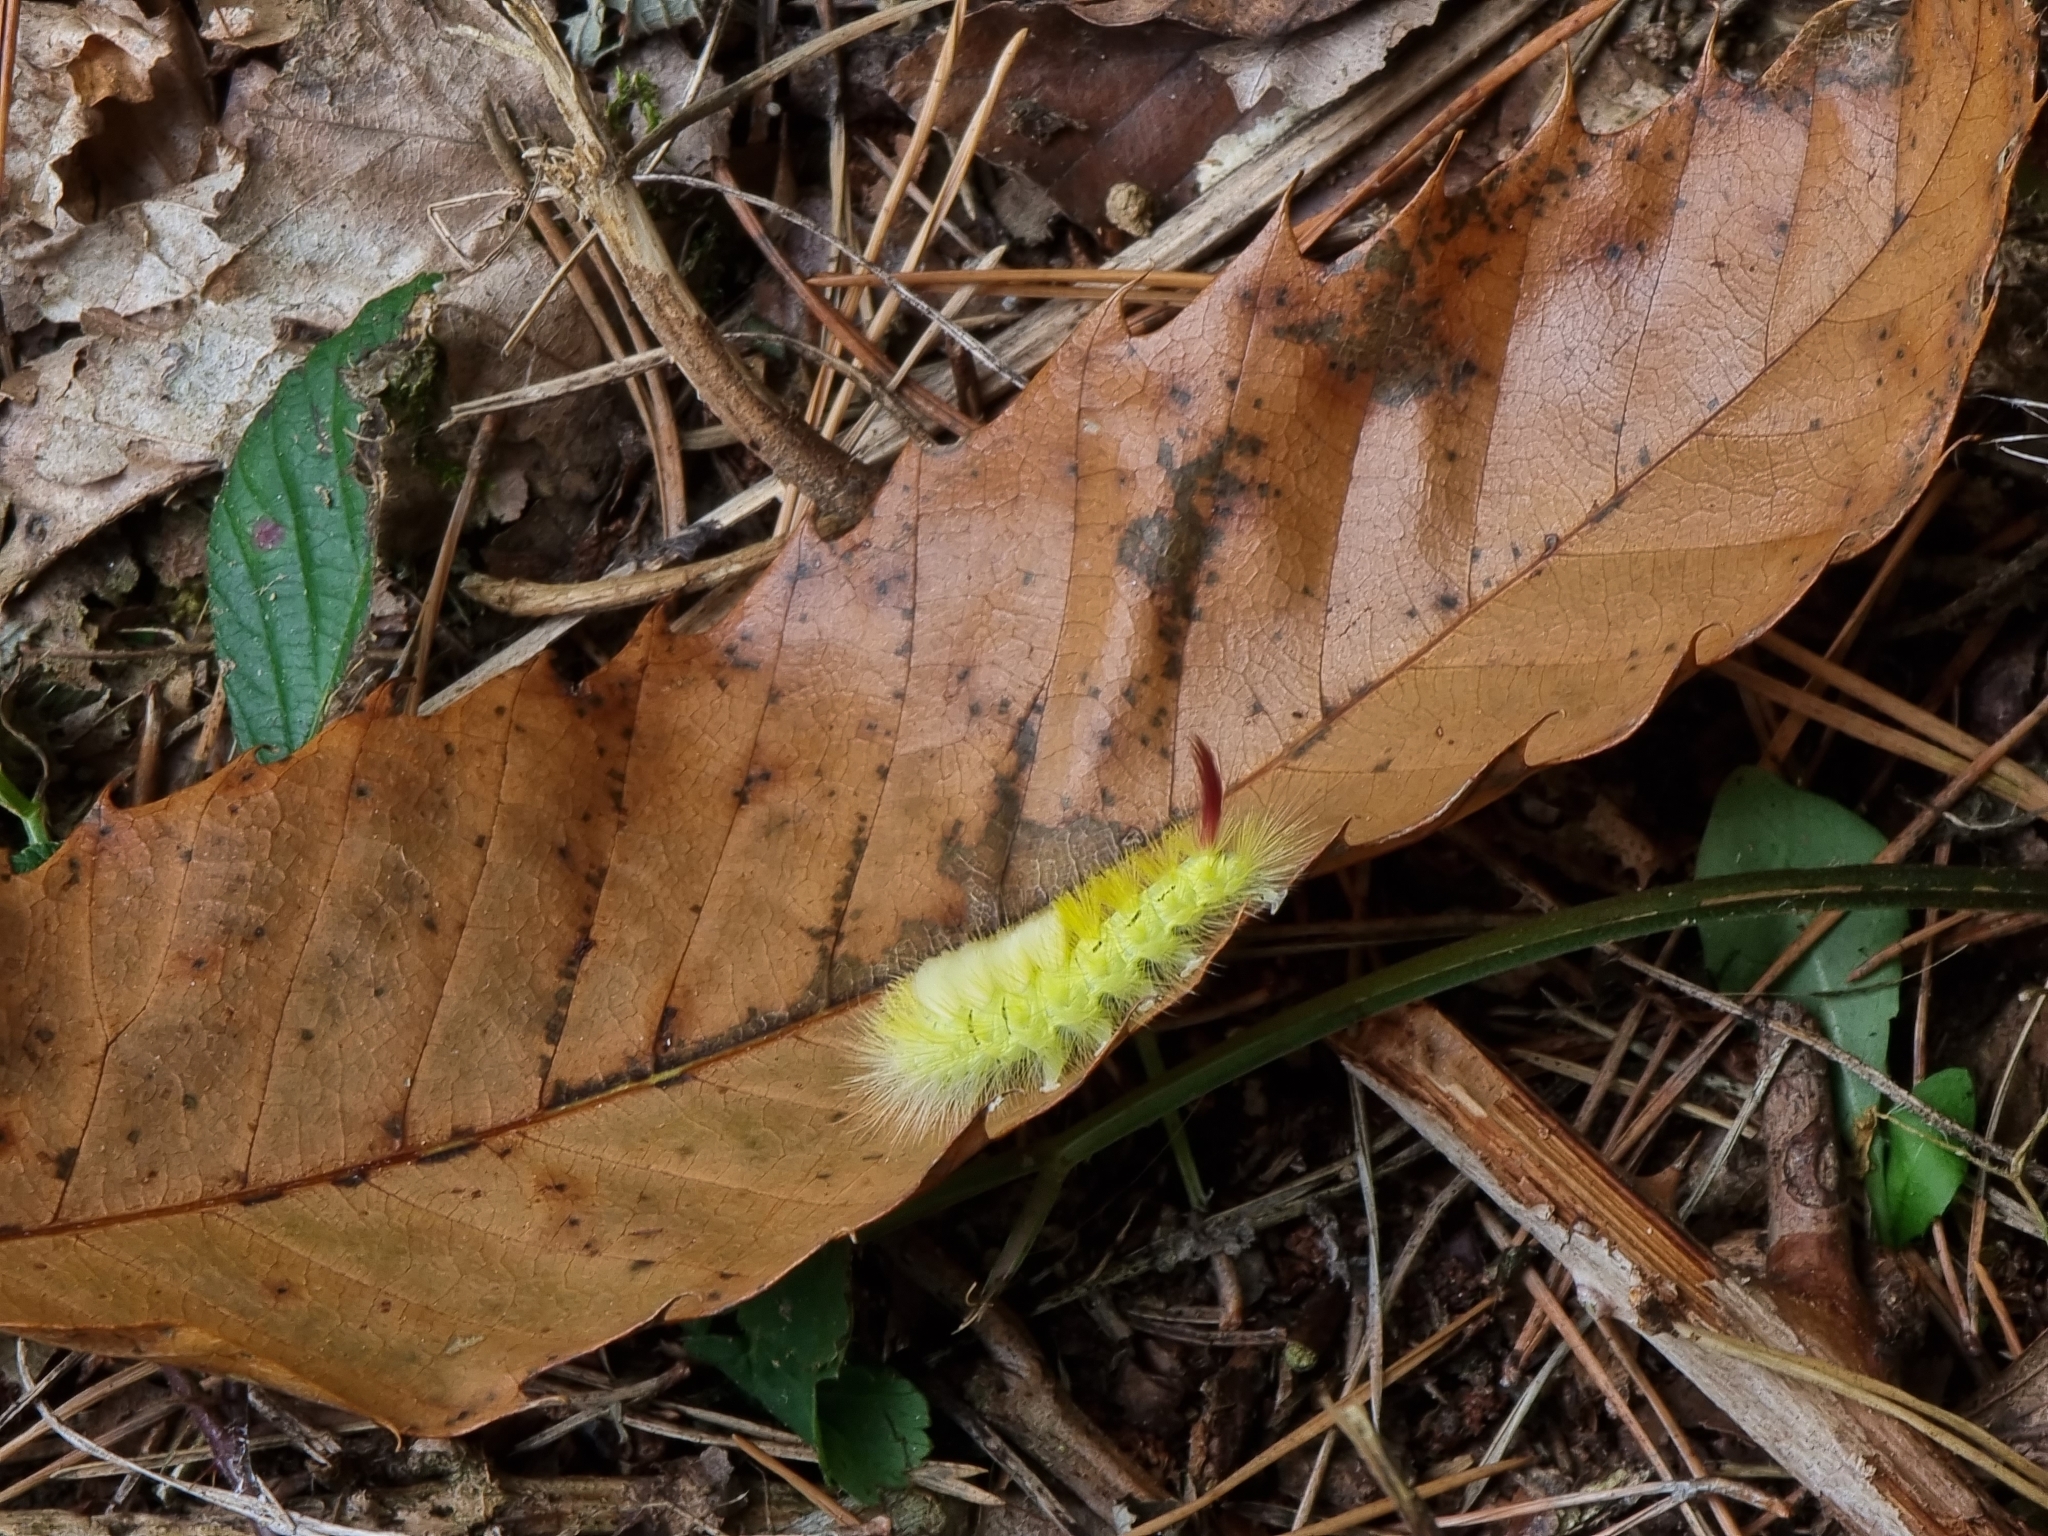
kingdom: Animalia
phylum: Arthropoda
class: Insecta
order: Lepidoptera
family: Erebidae
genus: Calliteara
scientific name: Calliteara pudibunda
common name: Pale tussock
